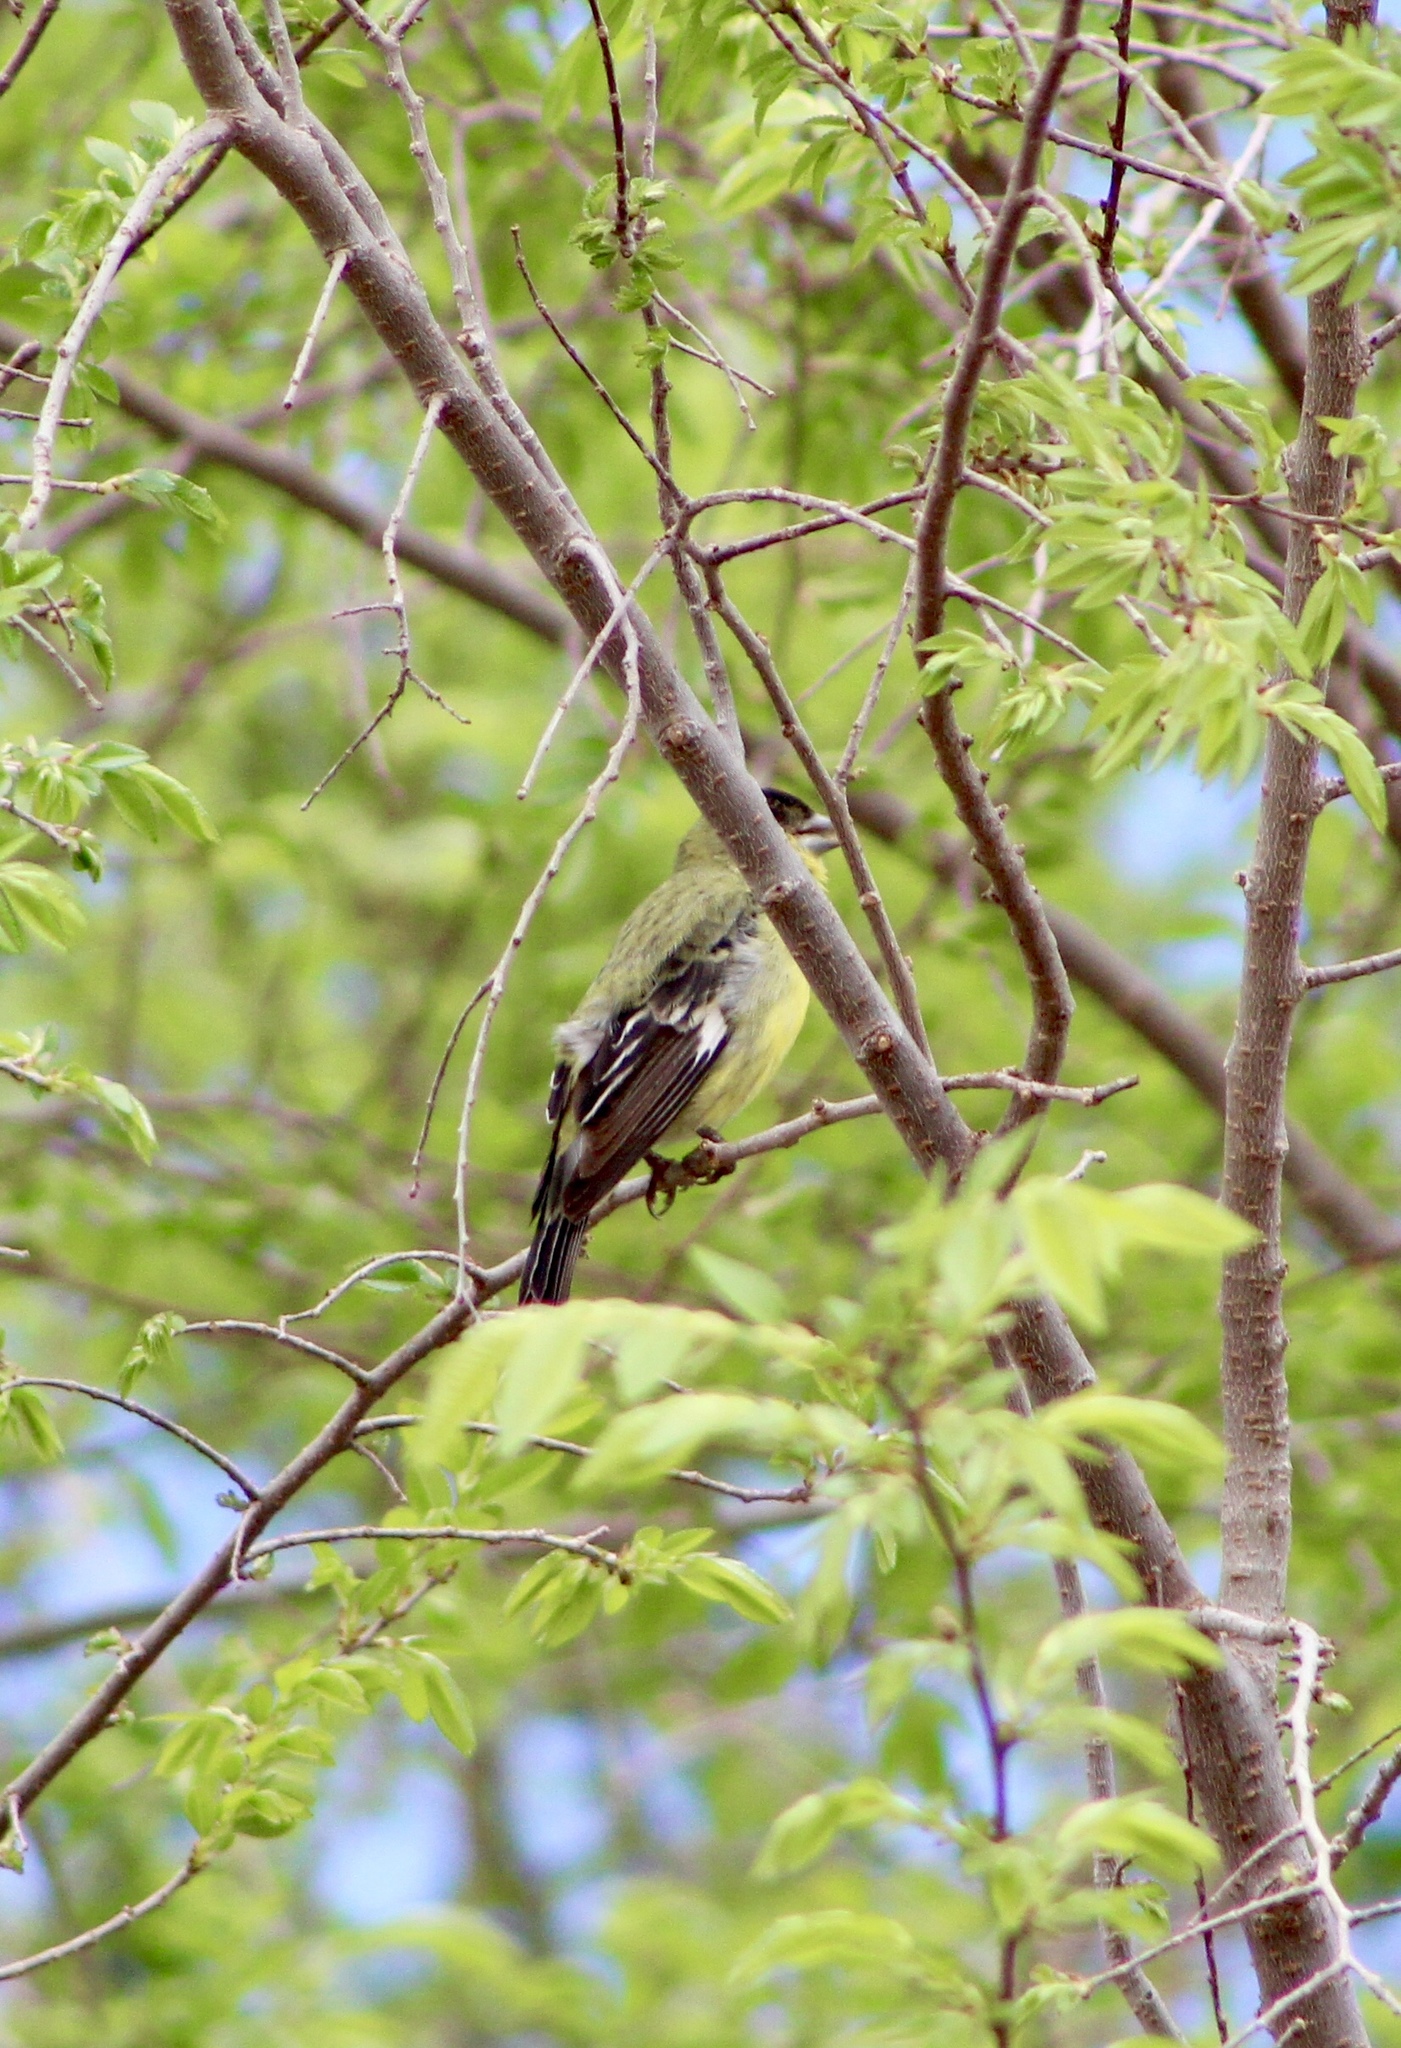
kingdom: Animalia
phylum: Chordata
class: Aves
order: Passeriformes
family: Fringillidae
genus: Spinus
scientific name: Spinus psaltria
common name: Lesser goldfinch
